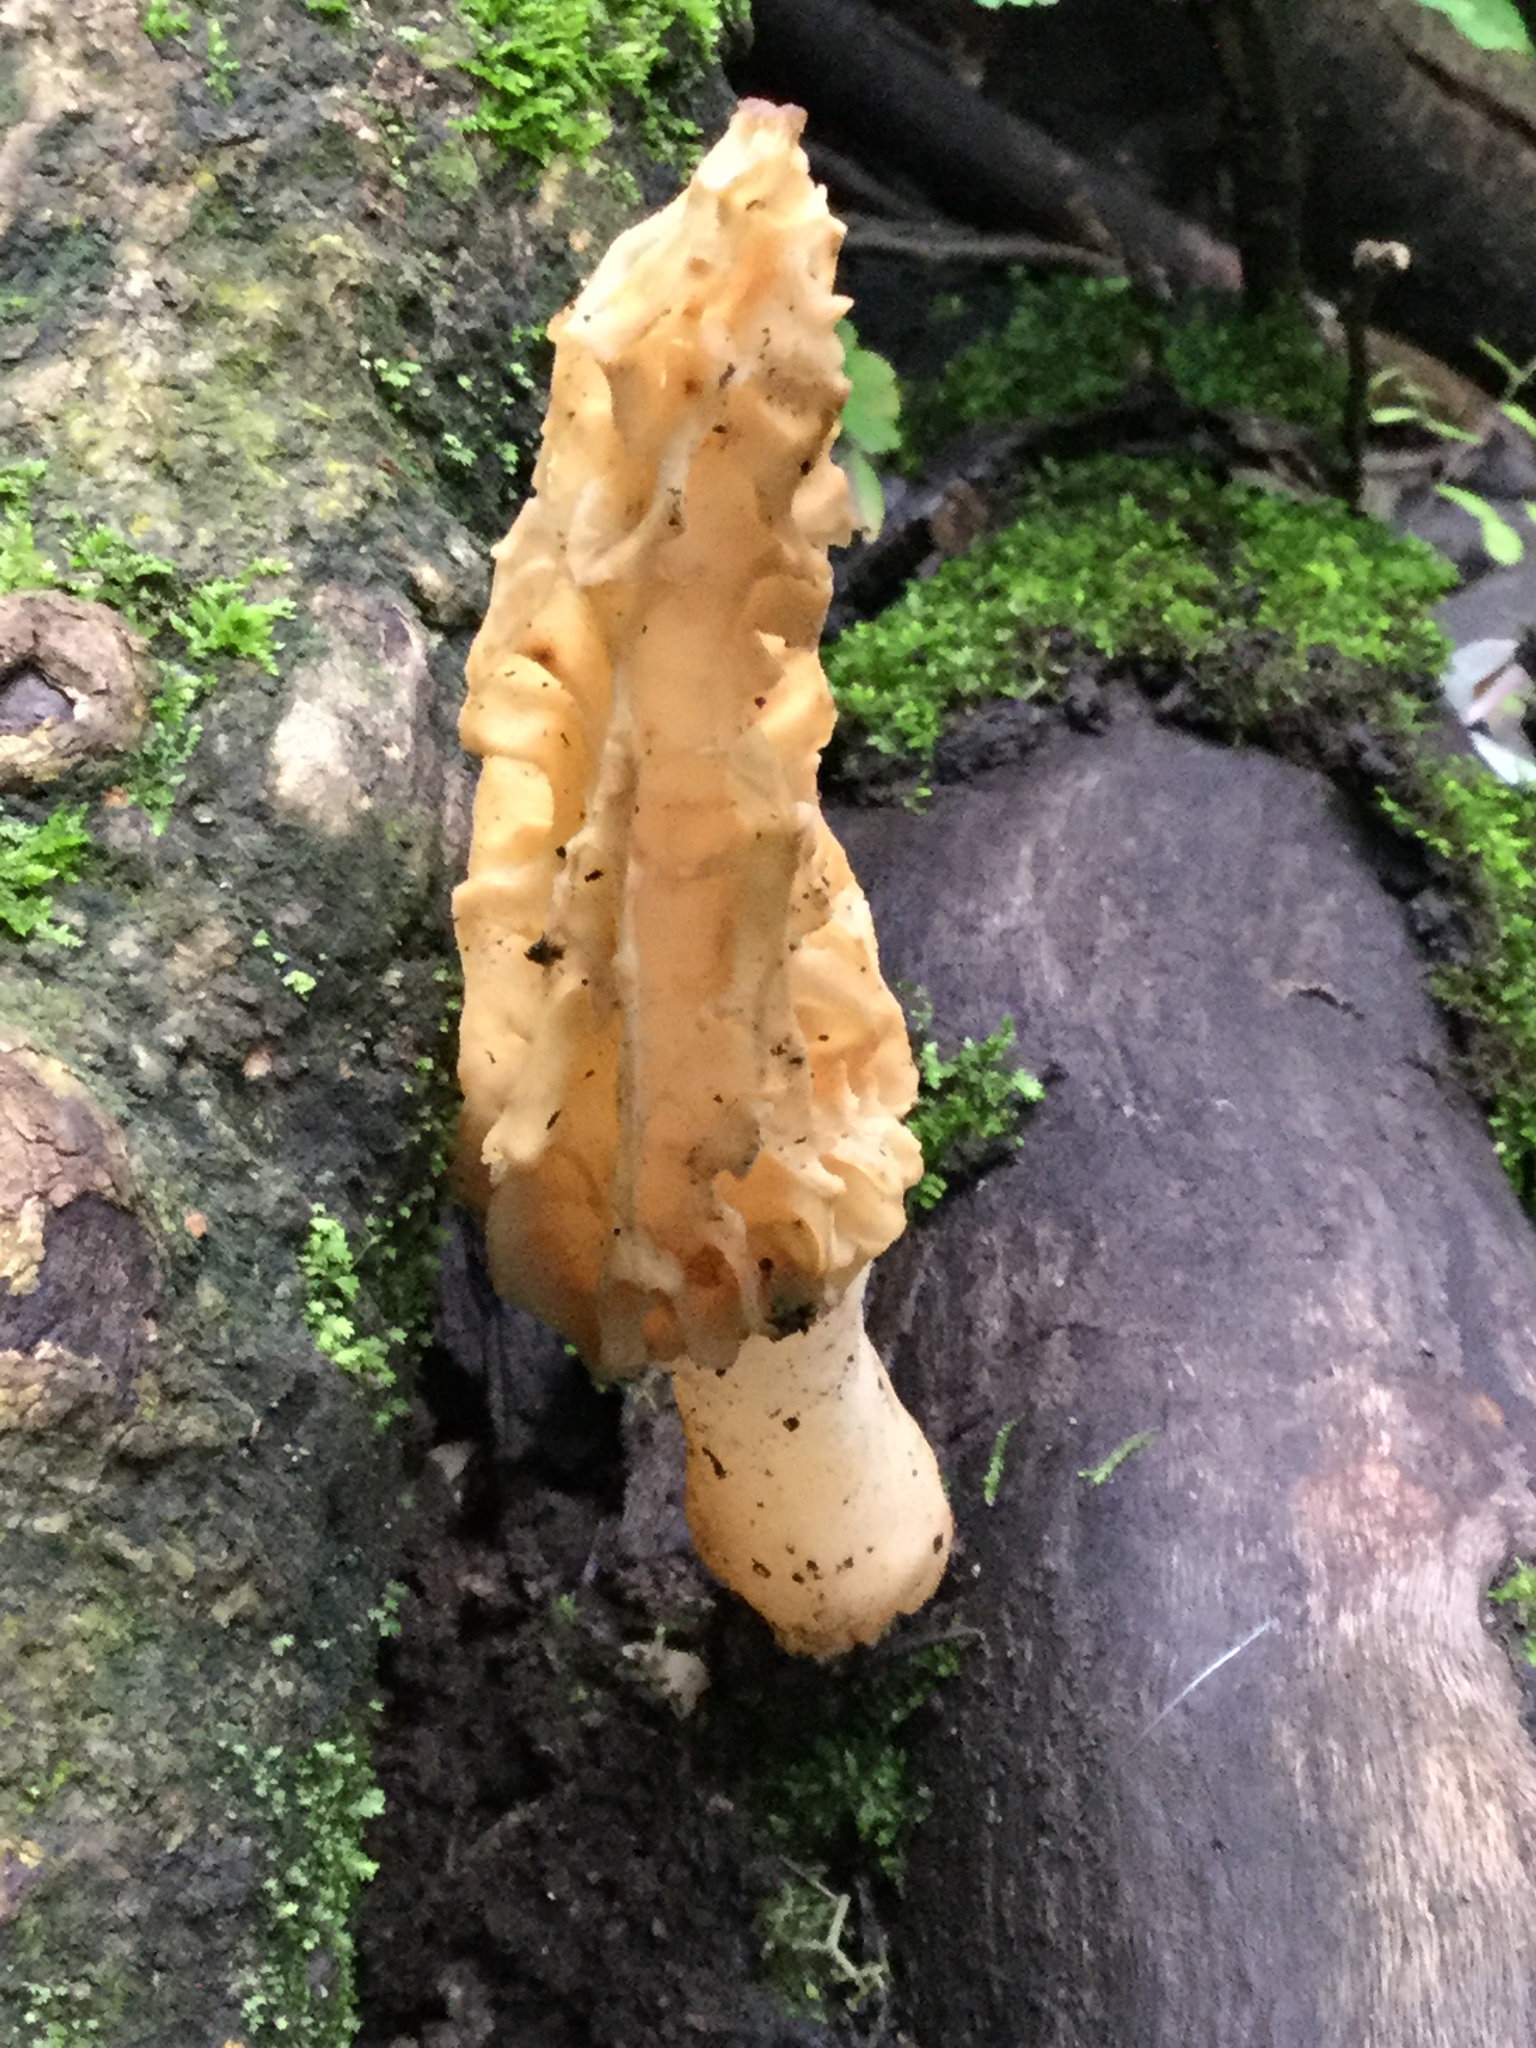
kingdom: Fungi
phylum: Ascomycota
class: Pezizomycetes
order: Pezizales
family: Morchellaceae
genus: Morchella
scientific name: Morchella rufobrunnea
